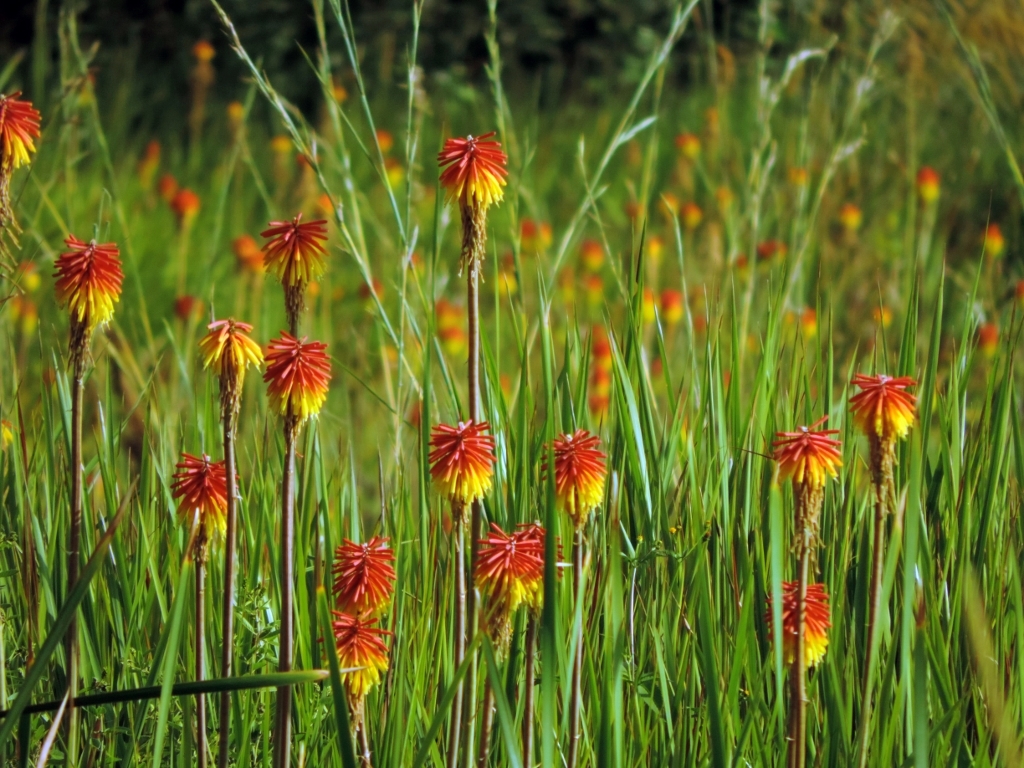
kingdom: Plantae
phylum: Tracheophyta
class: Liliopsida
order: Asparagales
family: Asphodelaceae
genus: Kniphofia
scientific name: Kniphofia linearifolia
